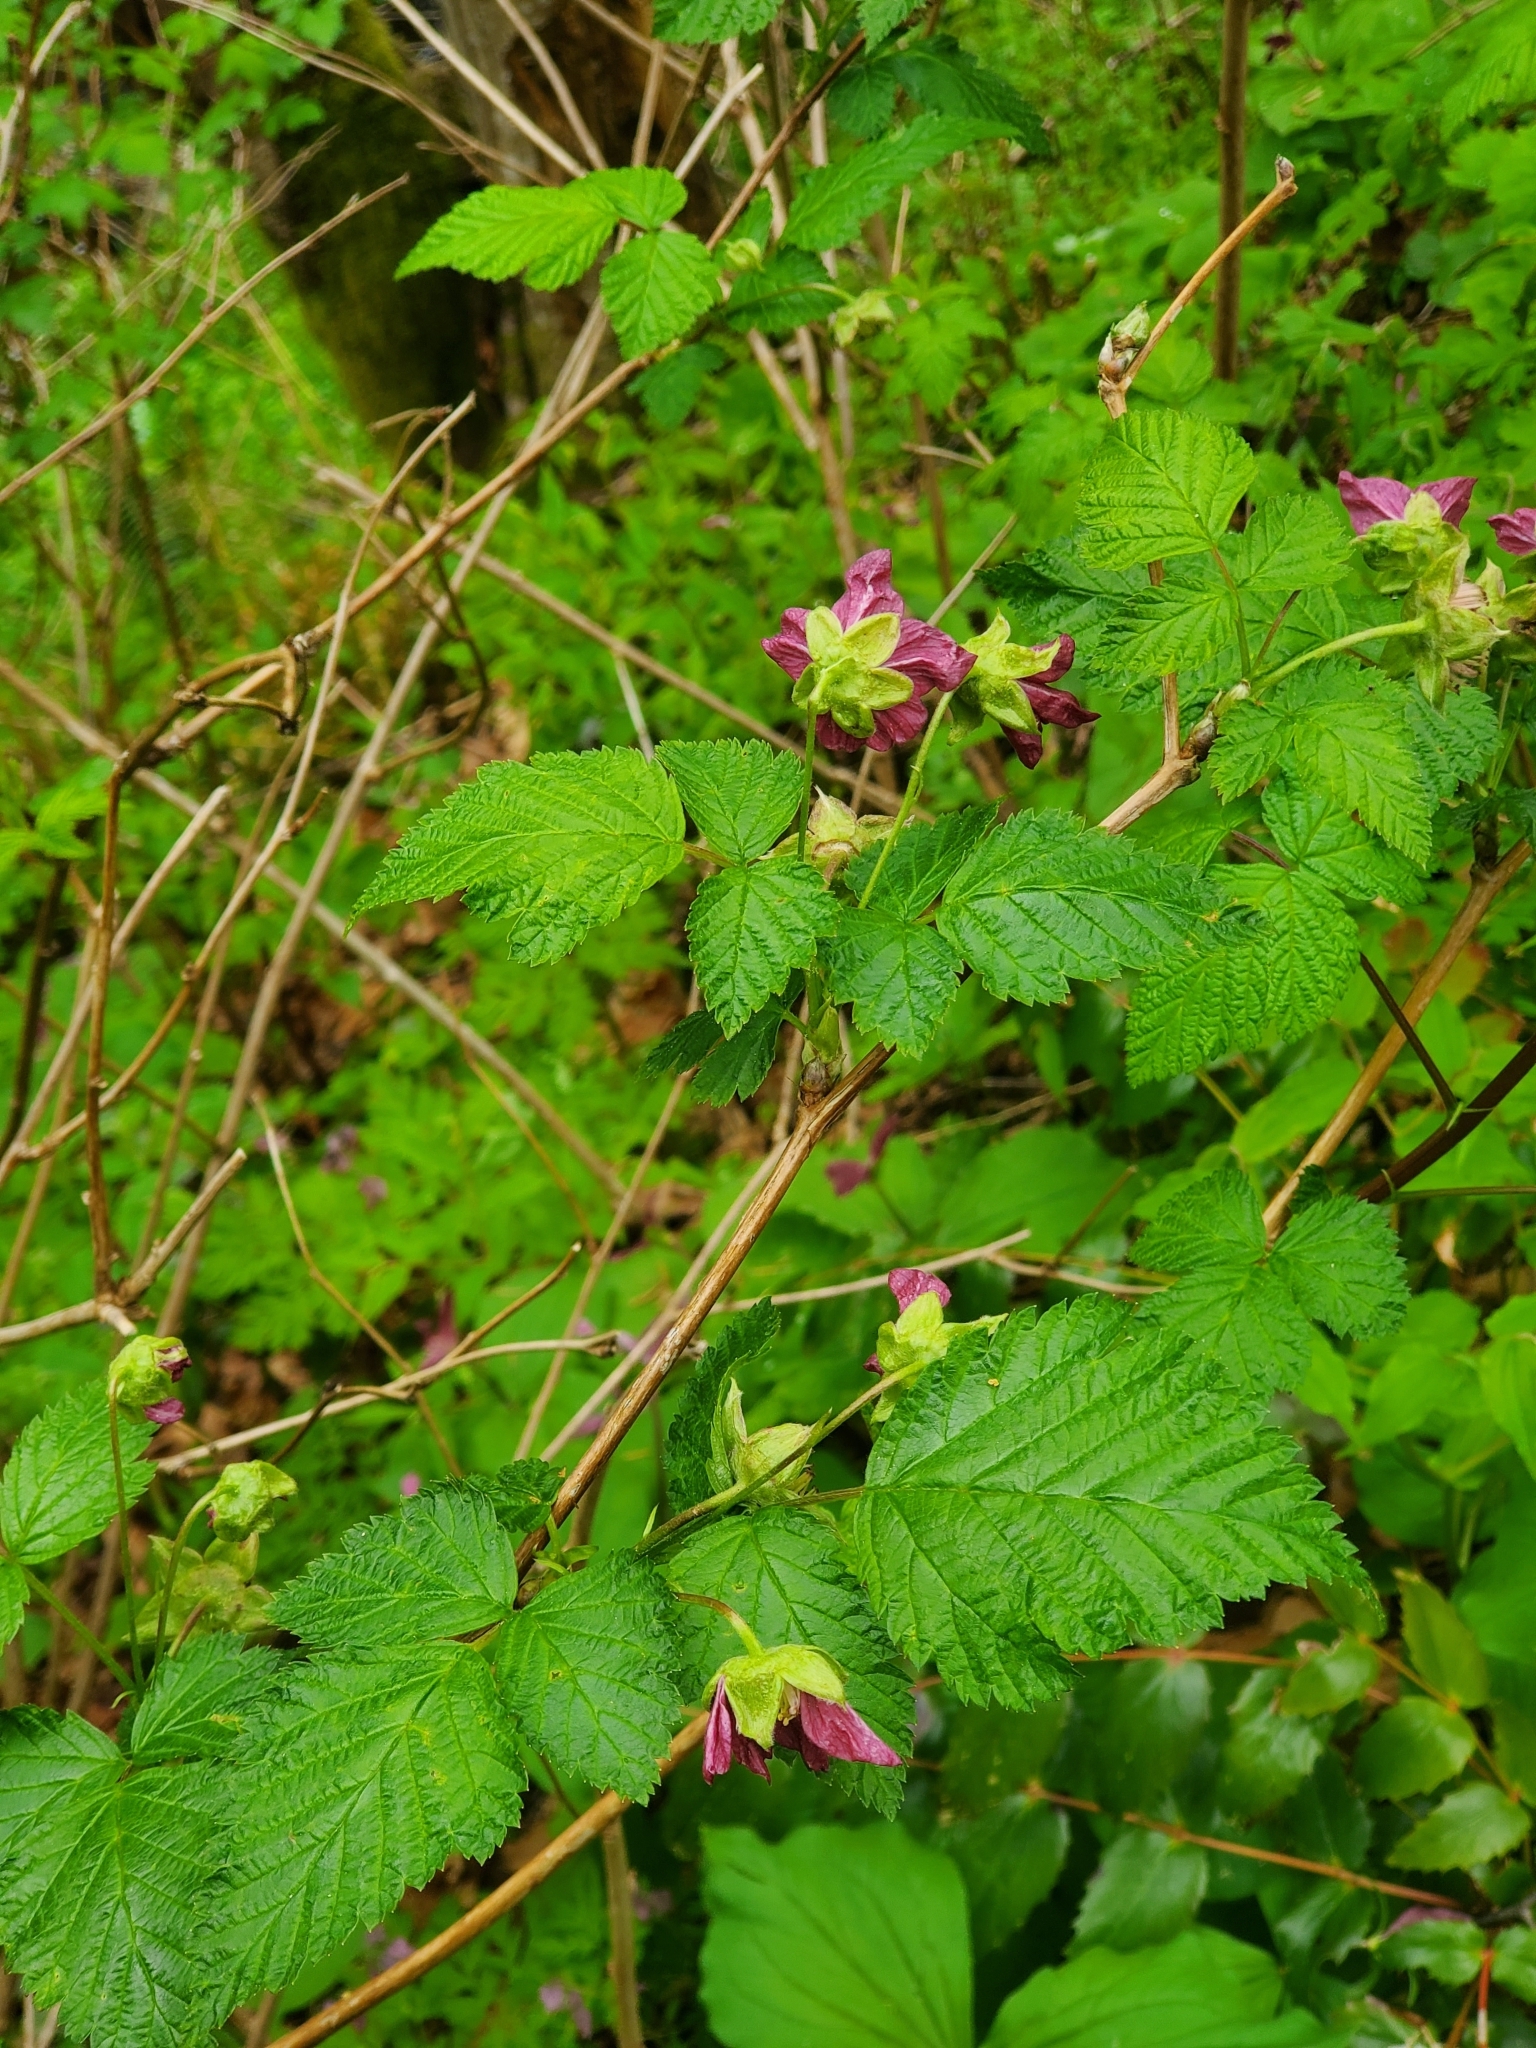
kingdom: Plantae
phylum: Tracheophyta
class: Magnoliopsida
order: Rosales
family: Rosaceae
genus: Rubus
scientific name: Rubus spectabilis
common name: Salmonberry
